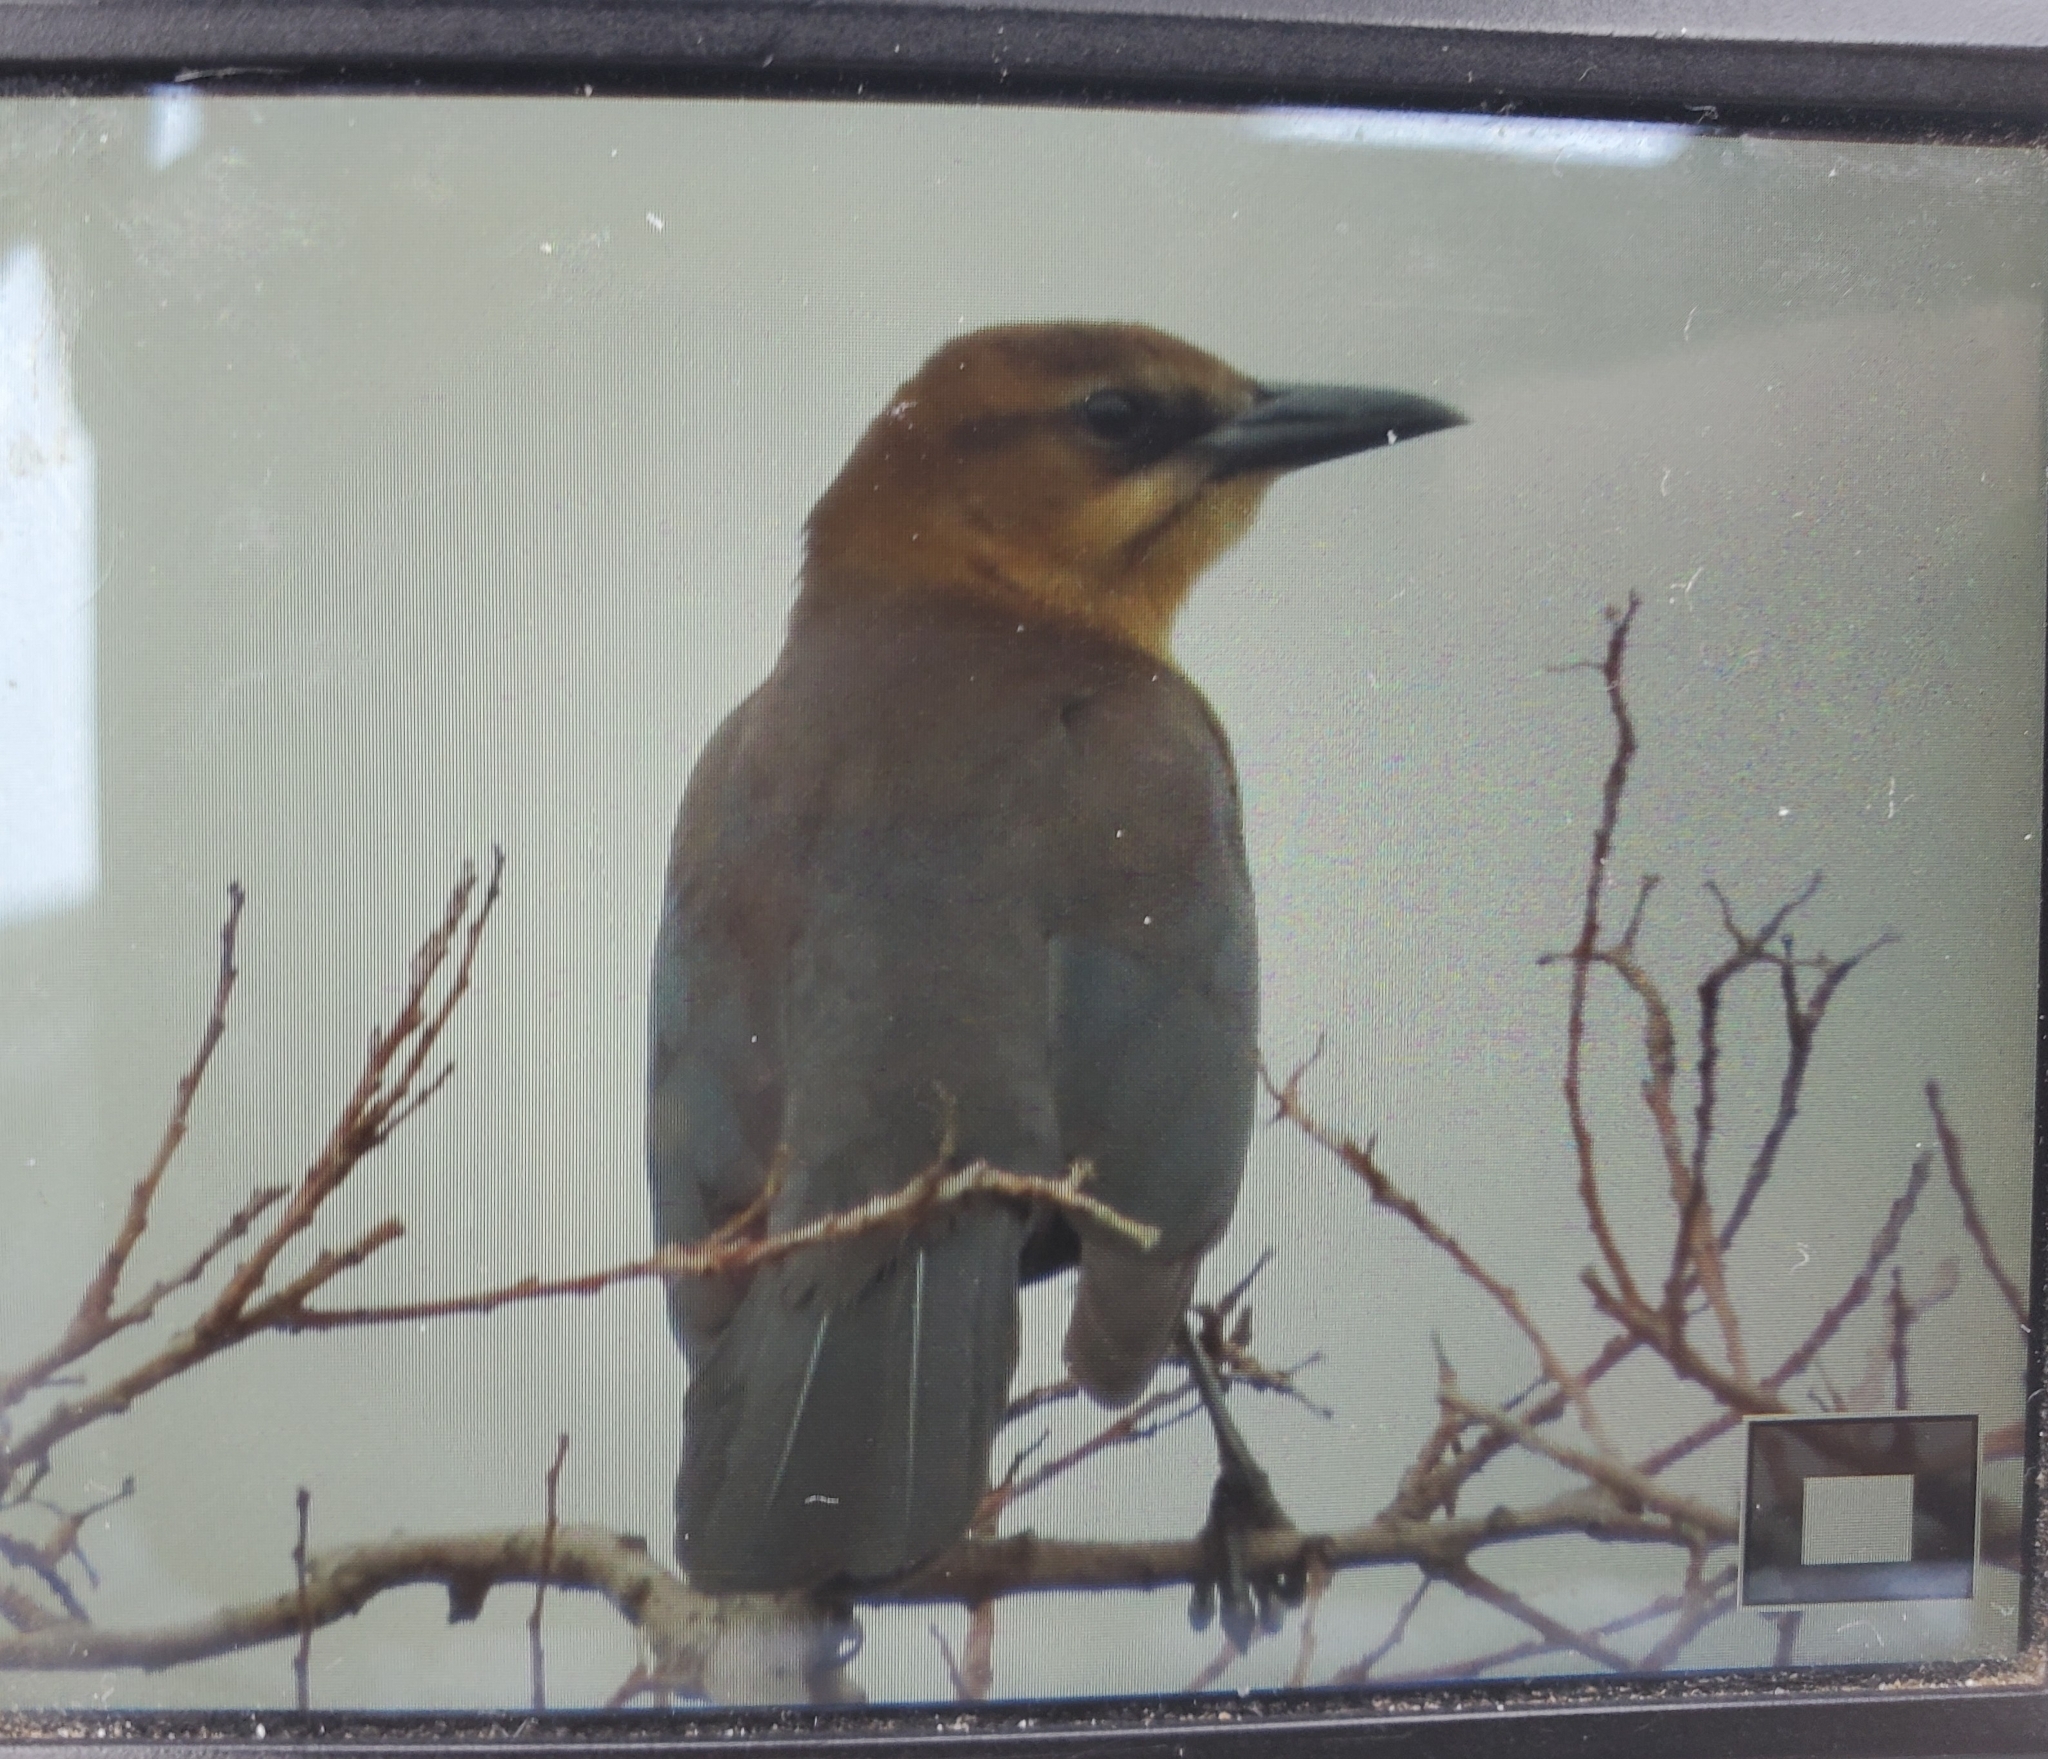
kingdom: Animalia
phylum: Chordata
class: Aves
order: Passeriformes
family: Icteridae
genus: Quiscalus
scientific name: Quiscalus major
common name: Boat-tailed grackle
